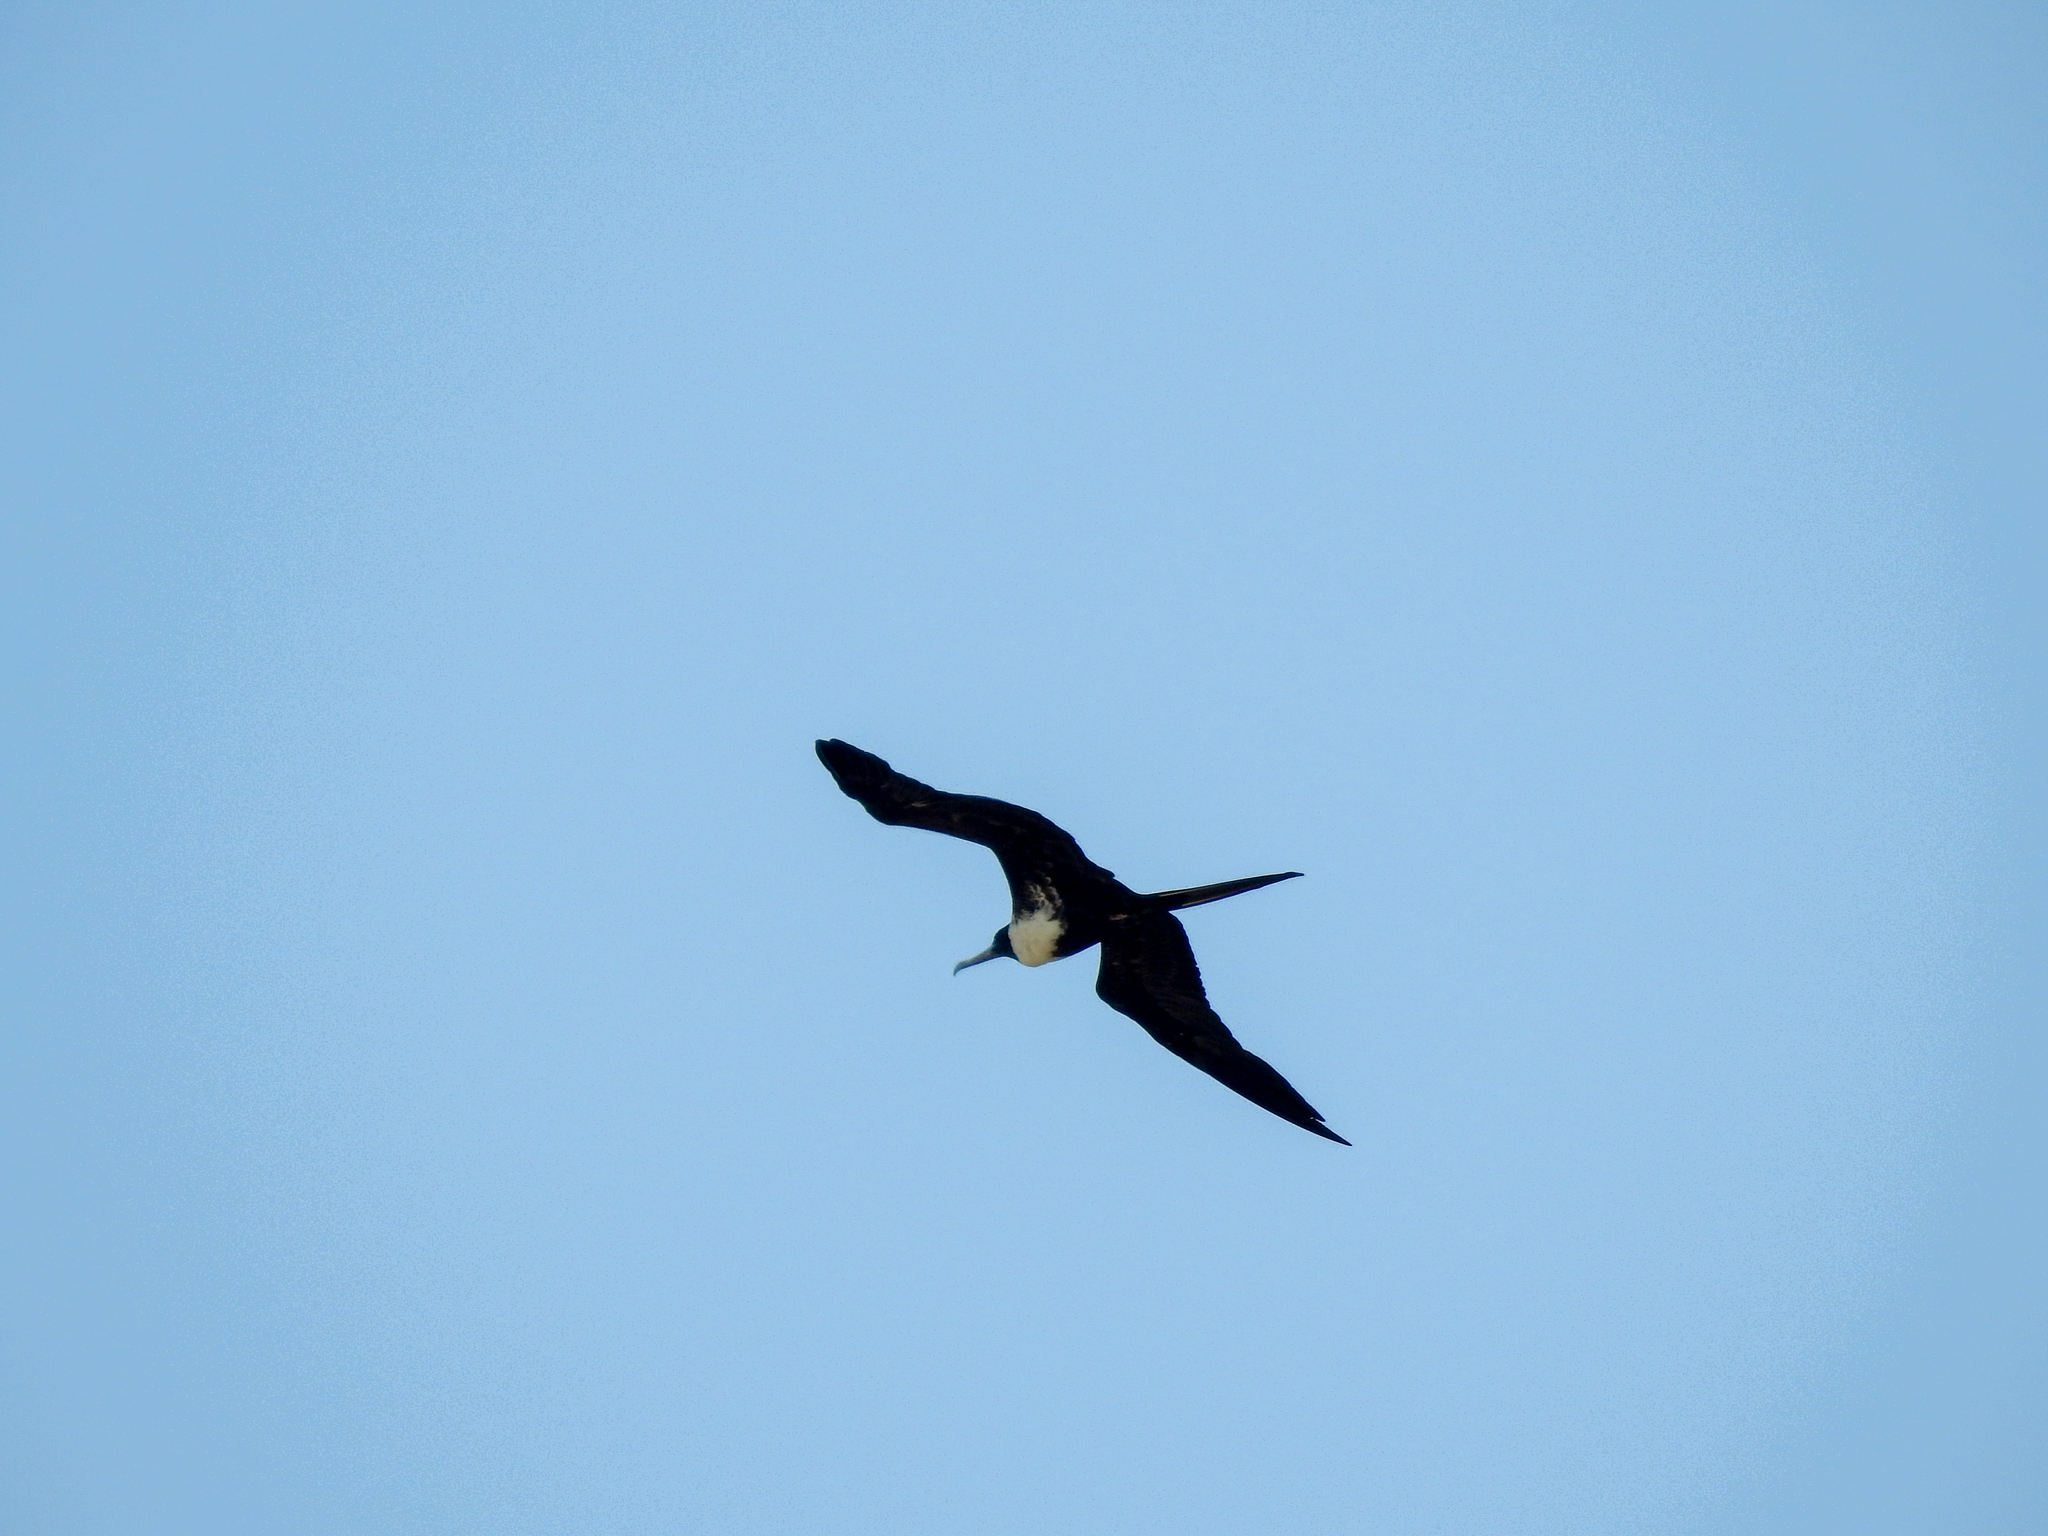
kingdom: Animalia
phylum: Chordata
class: Aves
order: Suliformes
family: Fregatidae
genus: Fregata
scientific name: Fregata magnificens
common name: Magnificent frigatebird
